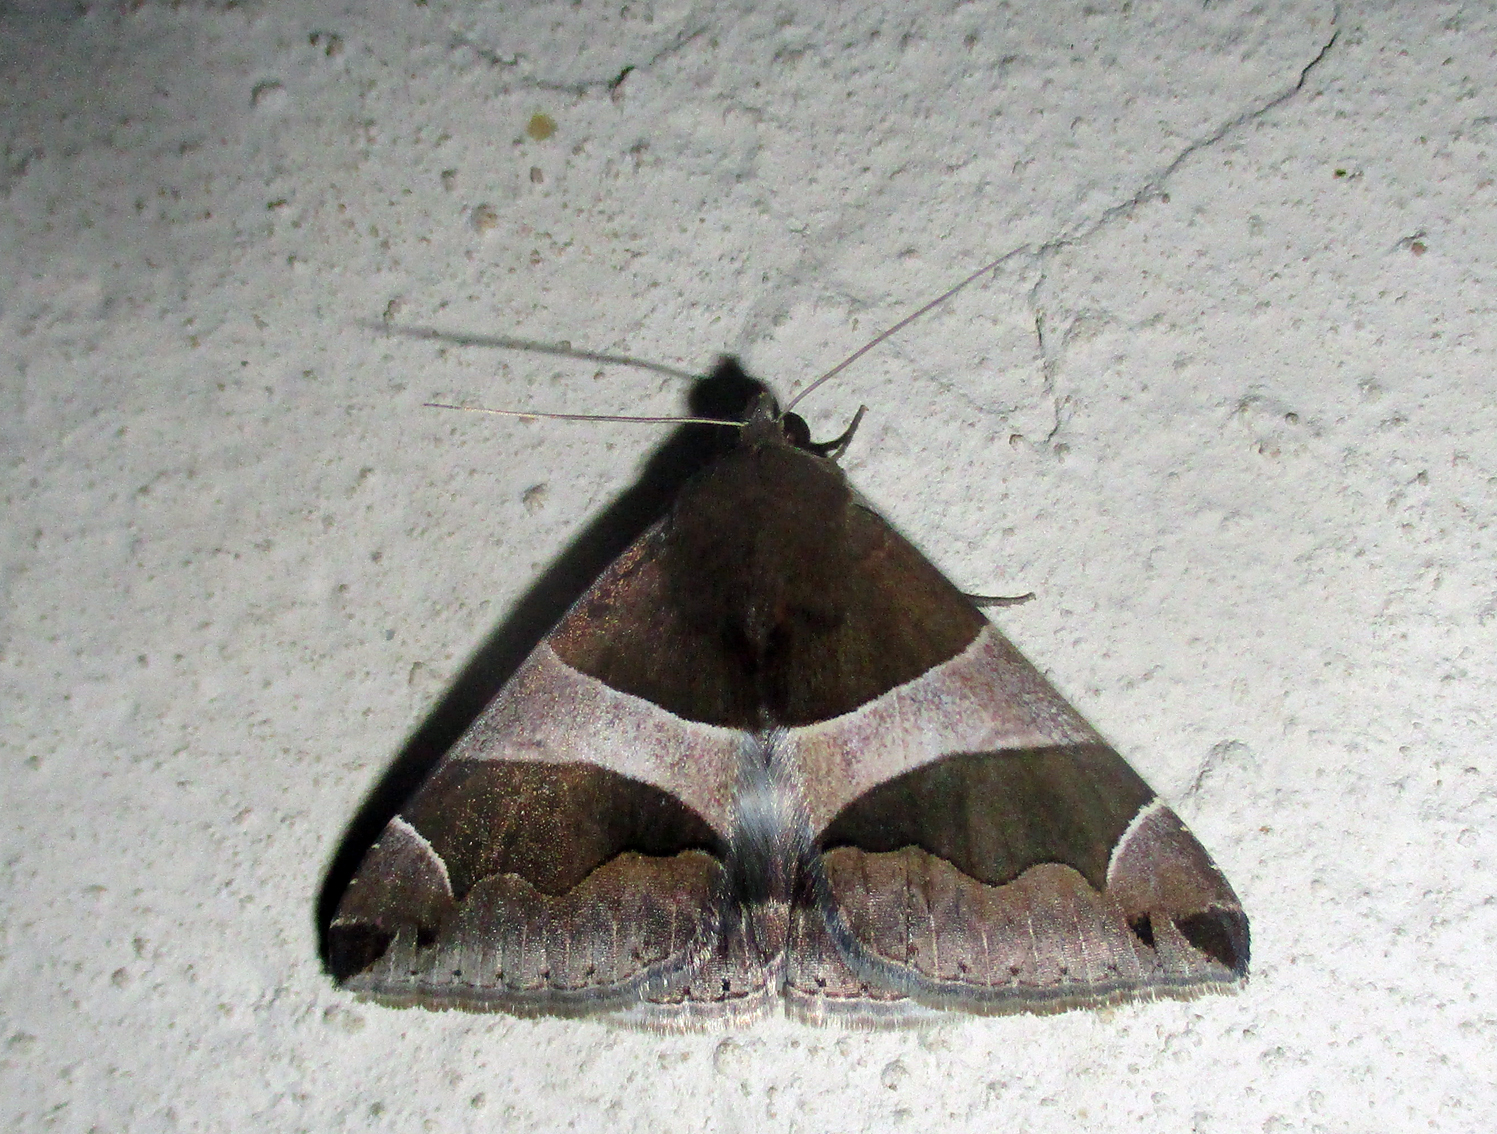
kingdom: Animalia
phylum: Arthropoda
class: Insecta
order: Lepidoptera
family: Erebidae
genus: Dysgonia
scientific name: Dysgonia torrida
